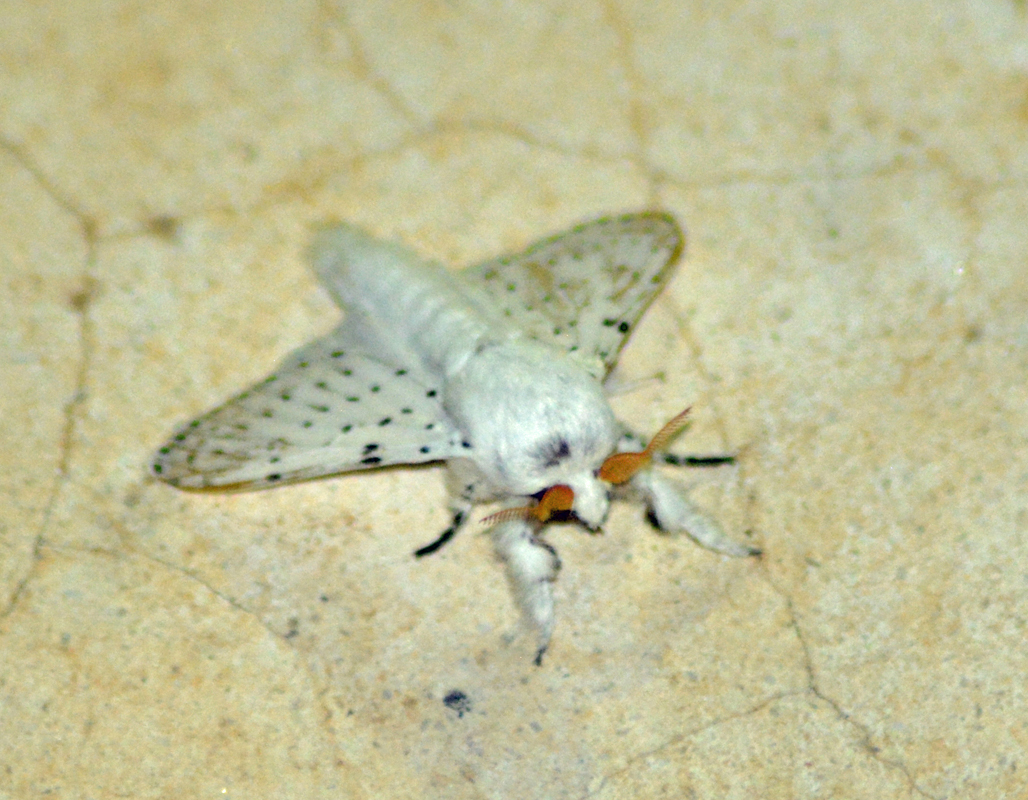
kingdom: Animalia
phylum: Arthropoda
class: Insecta
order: Lepidoptera
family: Lasiocampidae
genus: Artace
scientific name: Artace cribrarius
